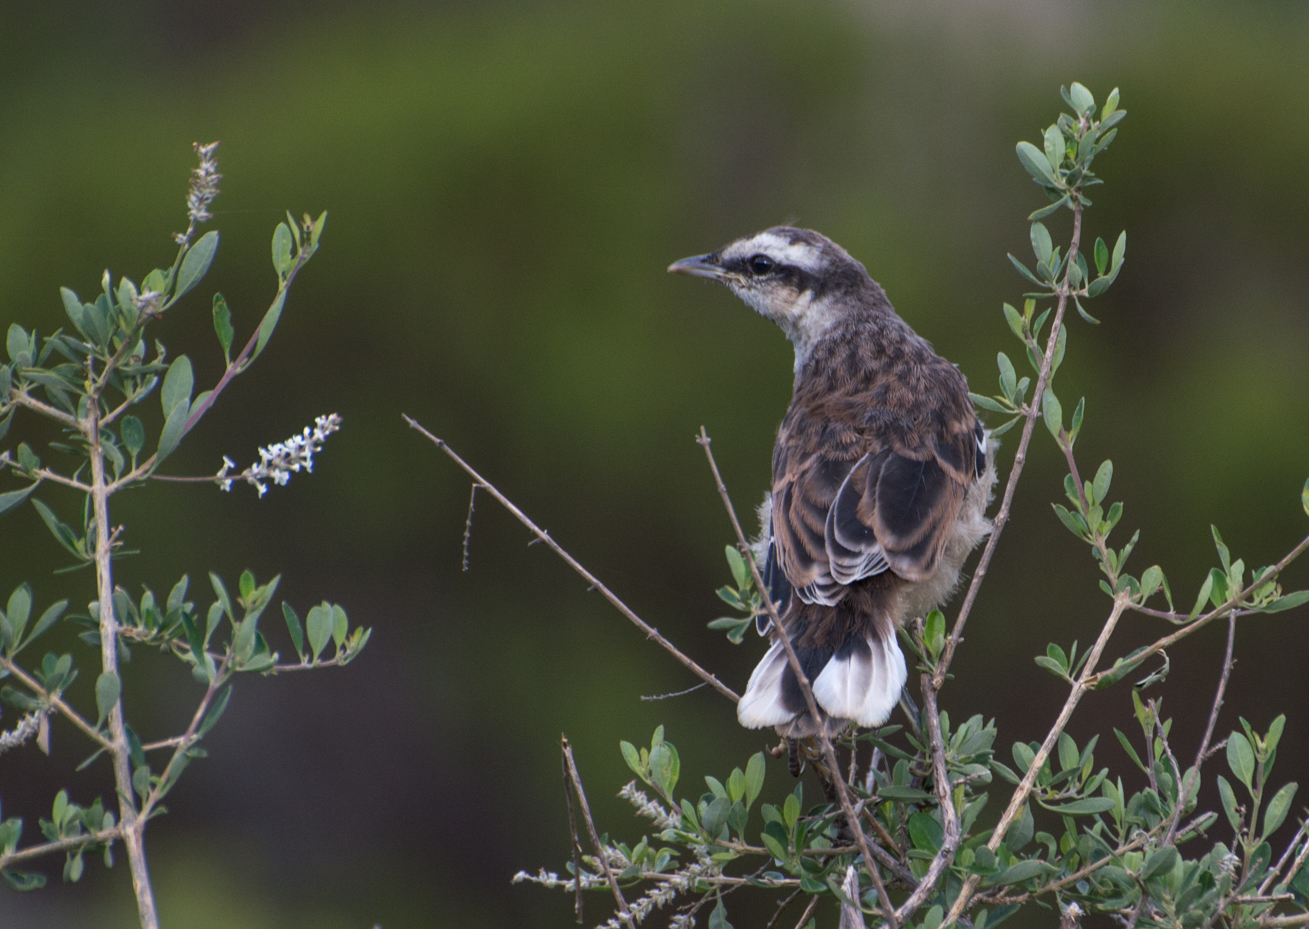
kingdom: Animalia
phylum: Chordata
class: Aves
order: Passeriformes
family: Mimidae
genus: Mimus
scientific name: Mimus saturninus
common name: Chalk-browed mockingbird
